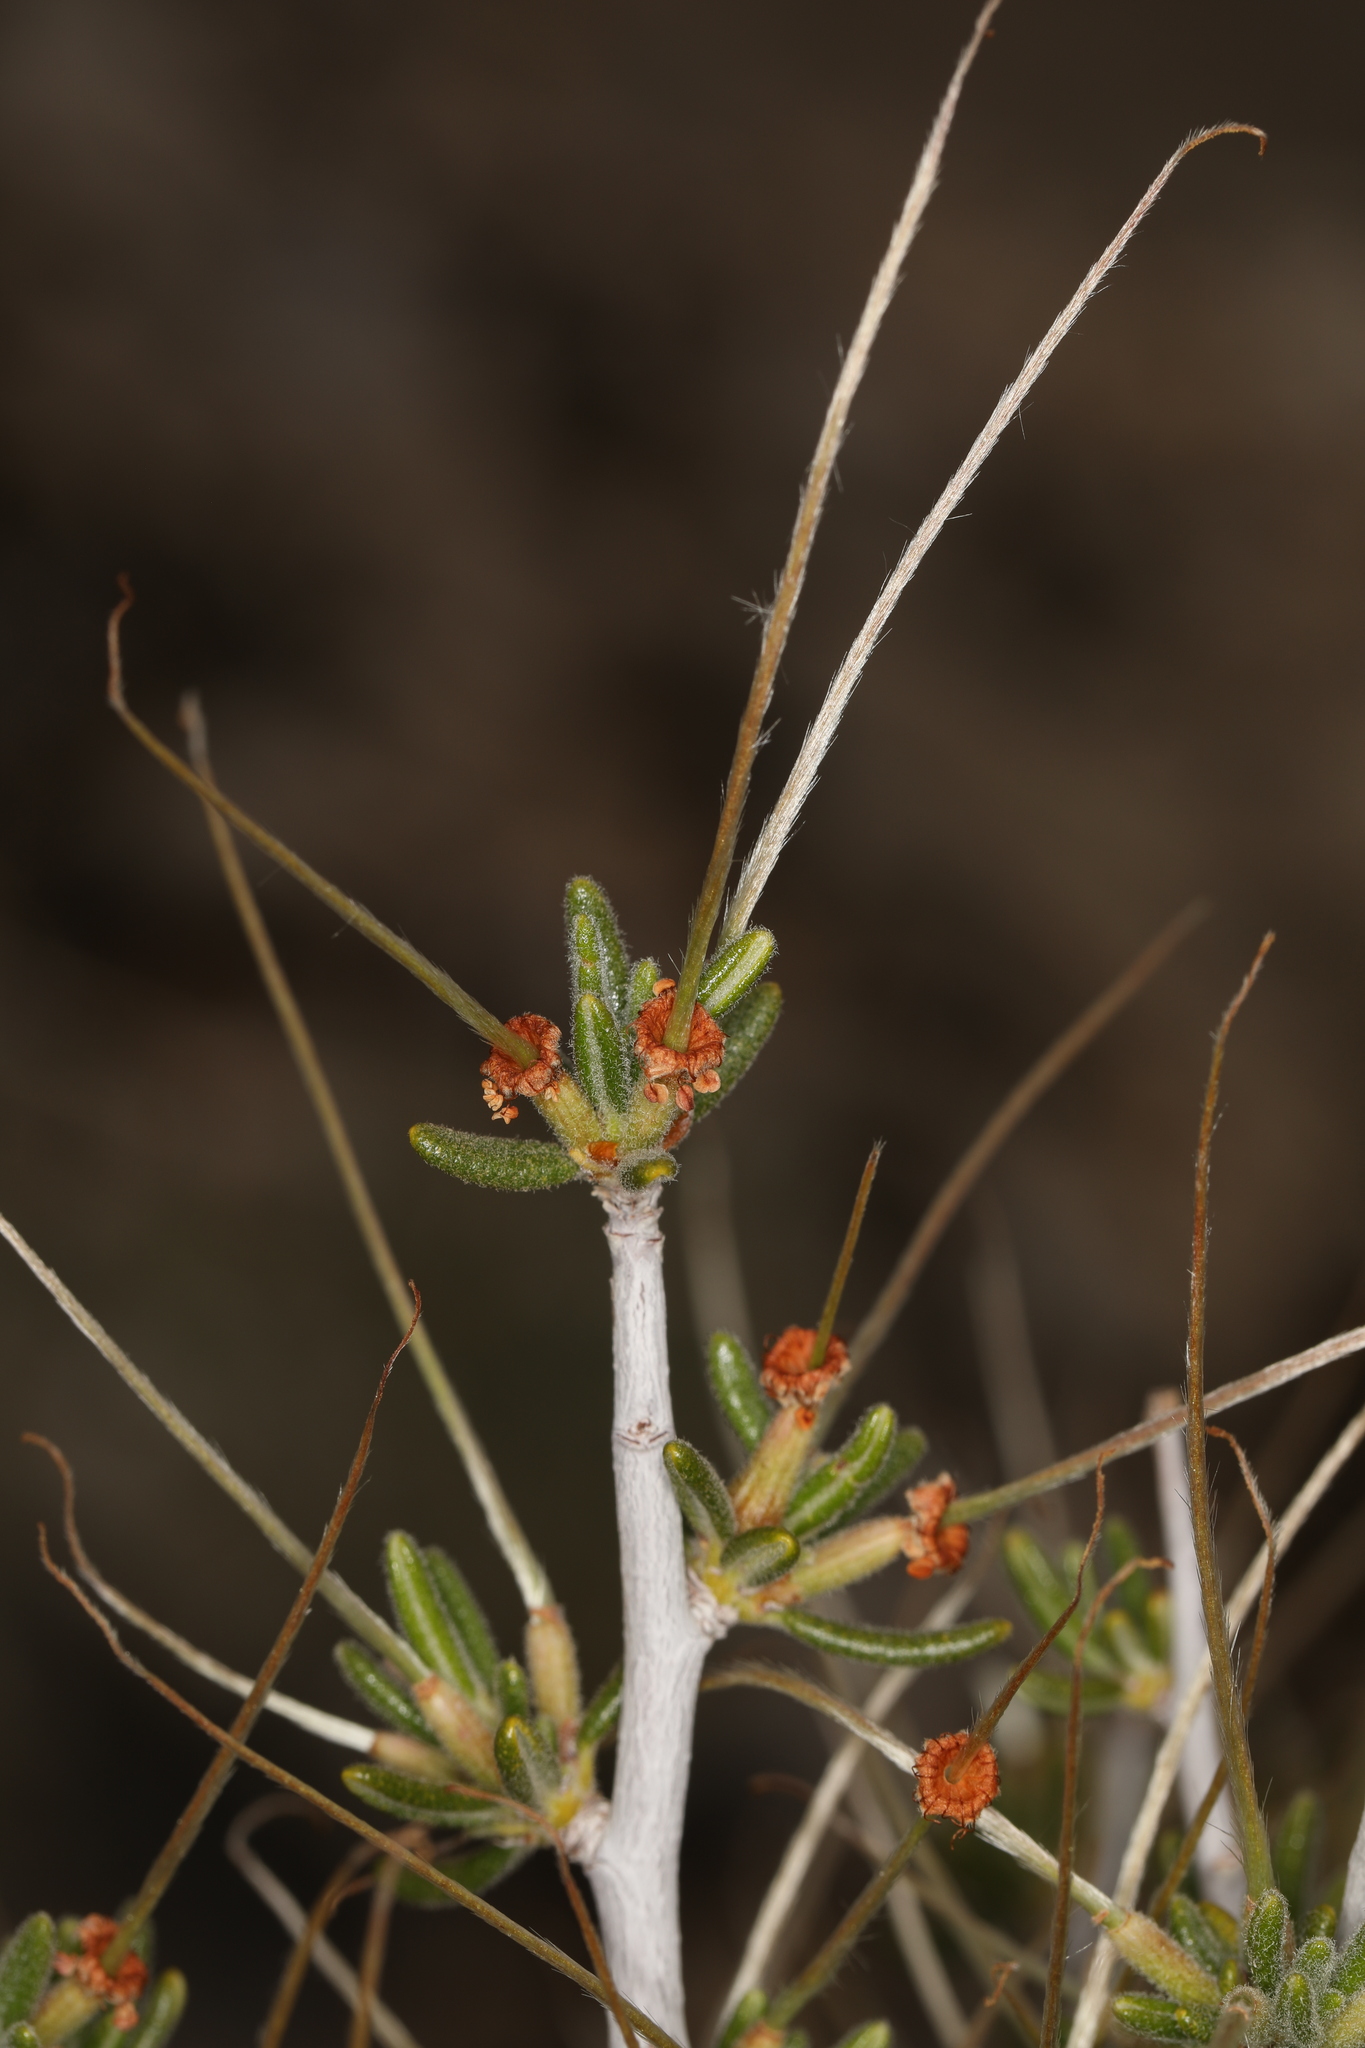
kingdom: Plantae
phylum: Tracheophyta
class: Magnoliopsida
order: Rosales
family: Rosaceae
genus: Cercocarpus
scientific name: Cercocarpus intricatus
